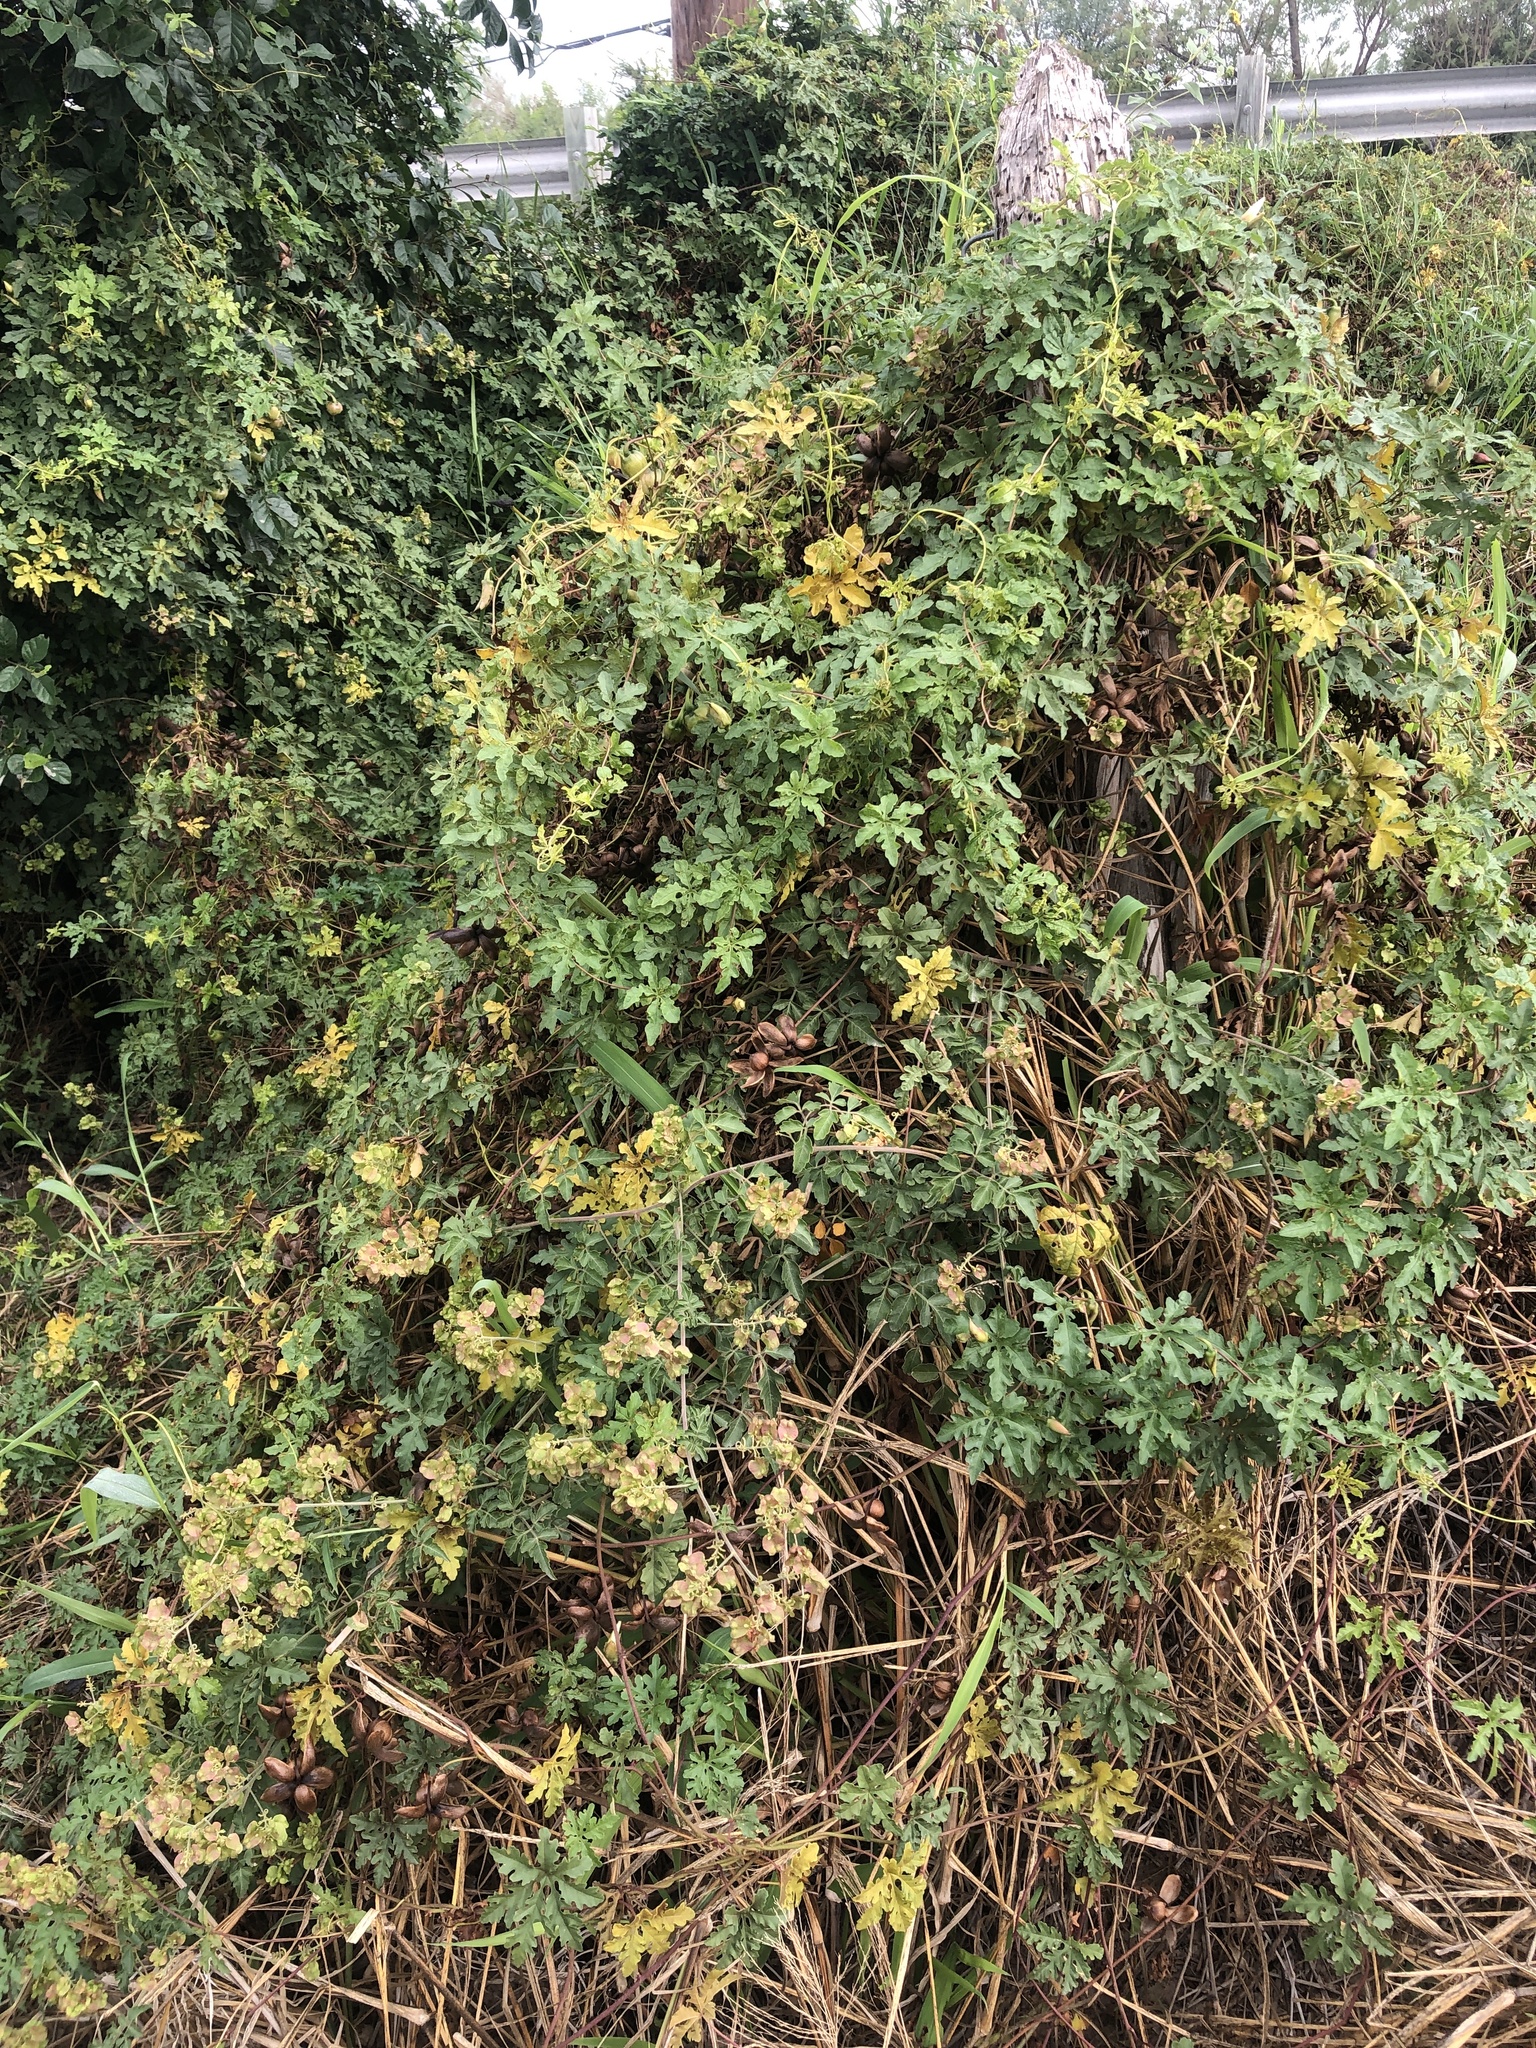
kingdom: Plantae
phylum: Tracheophyta
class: Magnoliopsida
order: Solanales
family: Convolvulaceae
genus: Distimake
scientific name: Distimake dissectus
